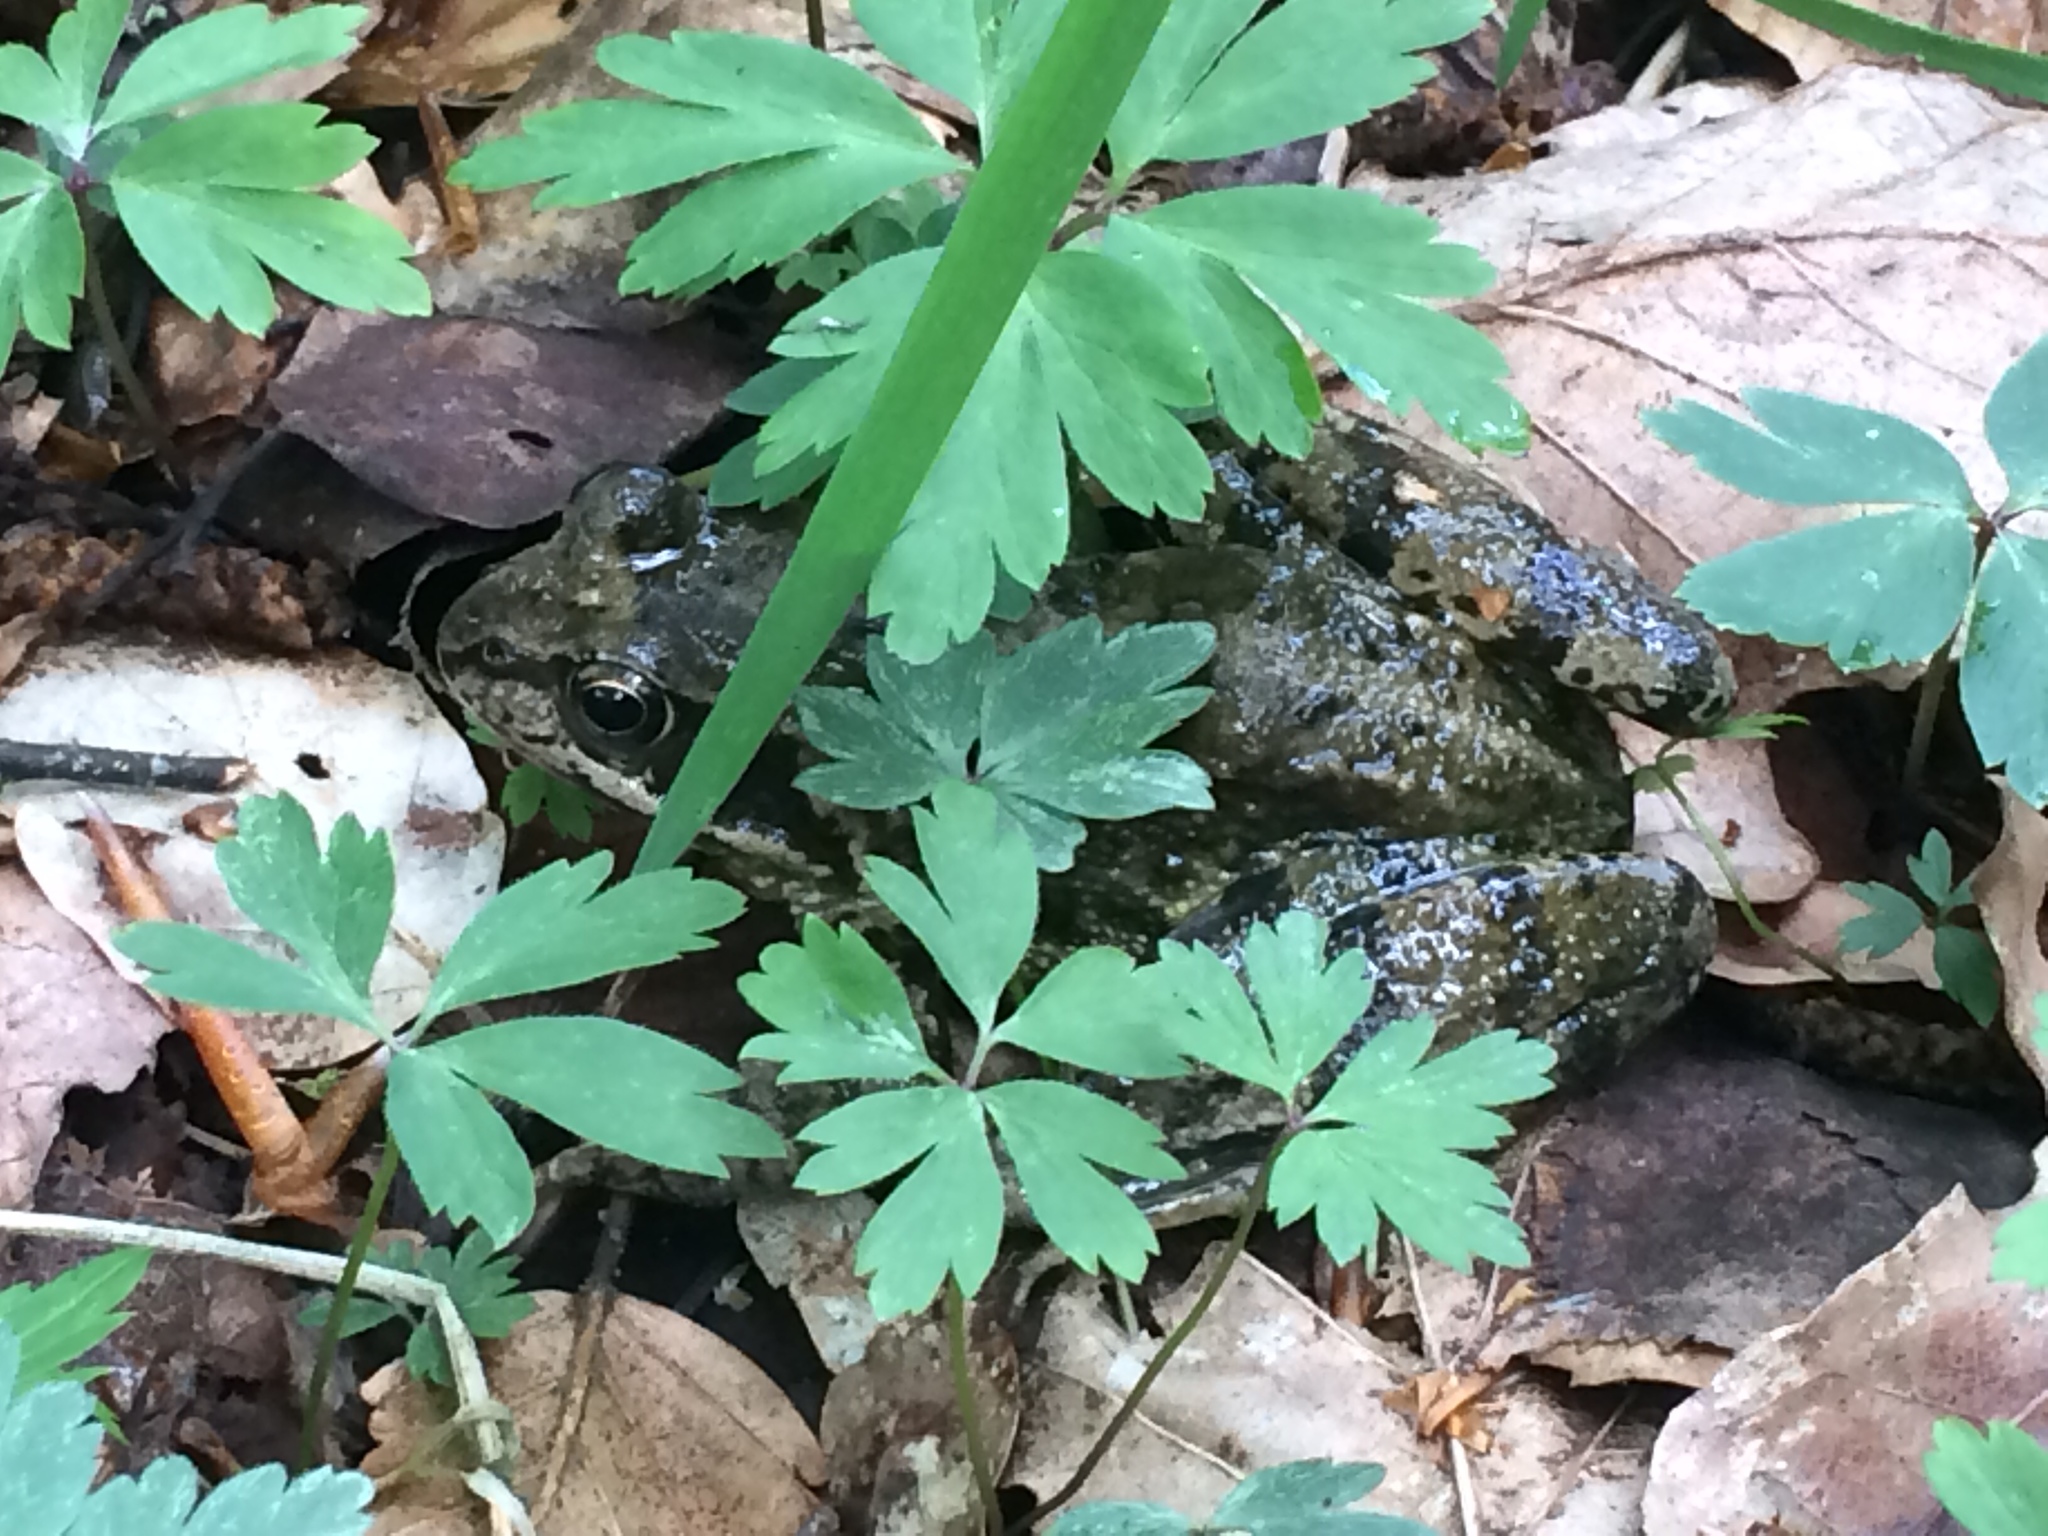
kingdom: Animalia
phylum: Chordata
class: Amphibia
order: Anura
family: Ranidae
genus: Rana
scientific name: Rana temporaria
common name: Common frog
